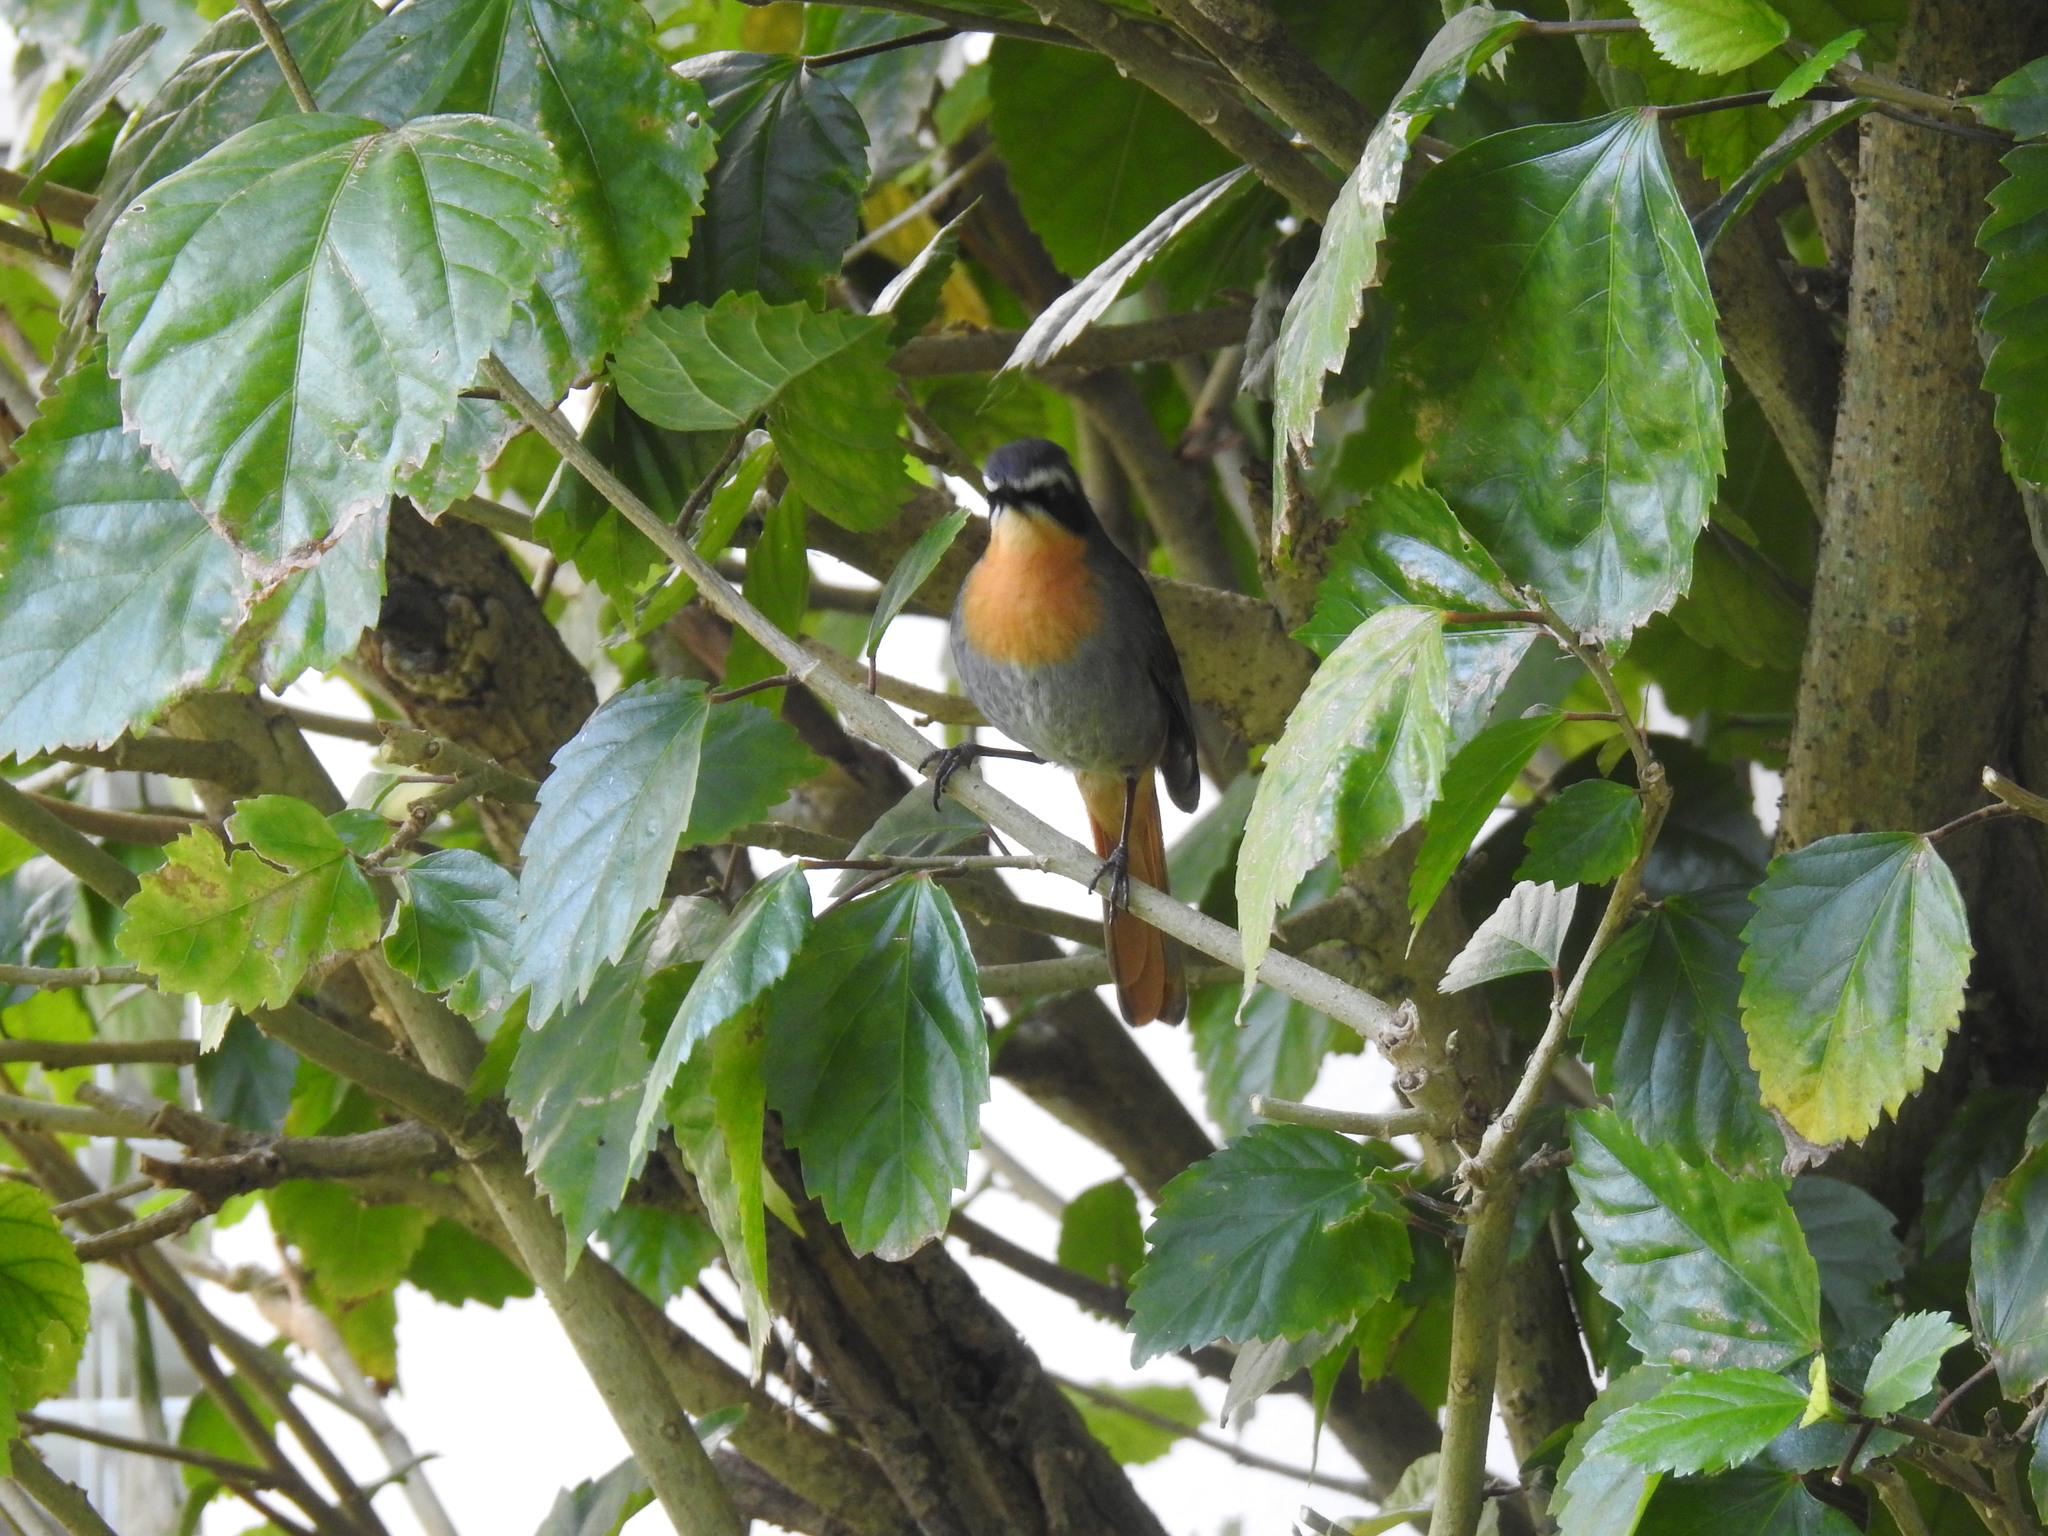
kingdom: Animalia
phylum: Chordata
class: Aves
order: Passeriformes
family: Muscicapidae
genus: Cossypha
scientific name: Cossypha caffra
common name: Cape robin-chat
